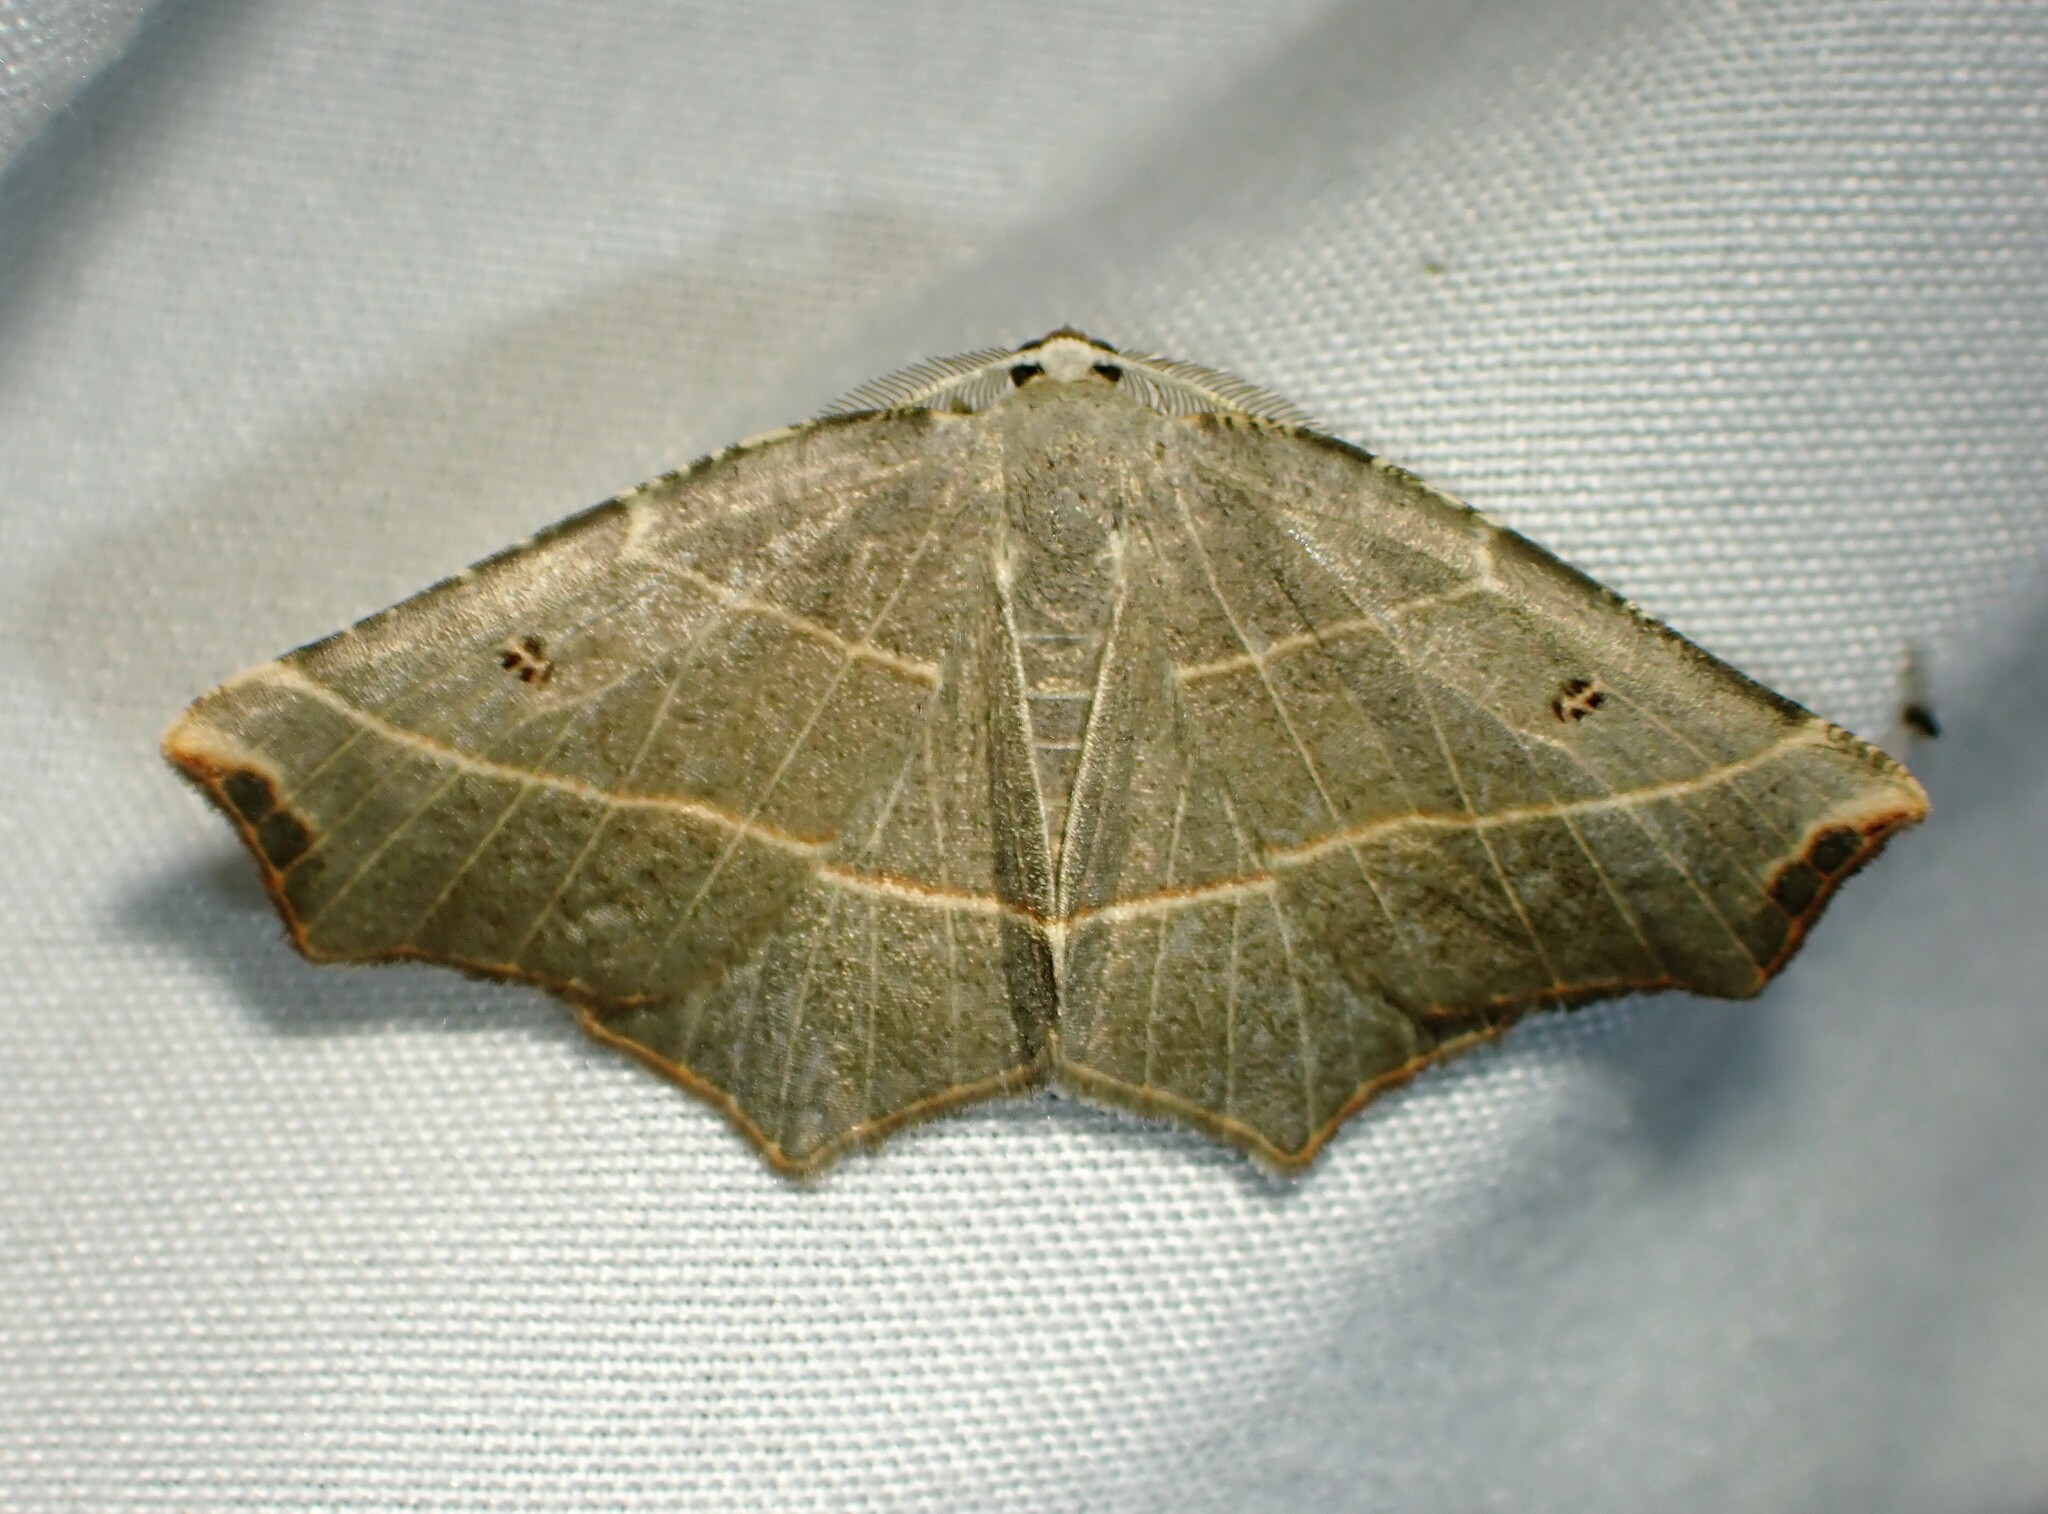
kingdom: Animalia
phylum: Arthropoda
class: Insecta
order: Lepidoptera
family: Geometridae
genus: Metanema
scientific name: Metanema inatomaria
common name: Pale metanema
